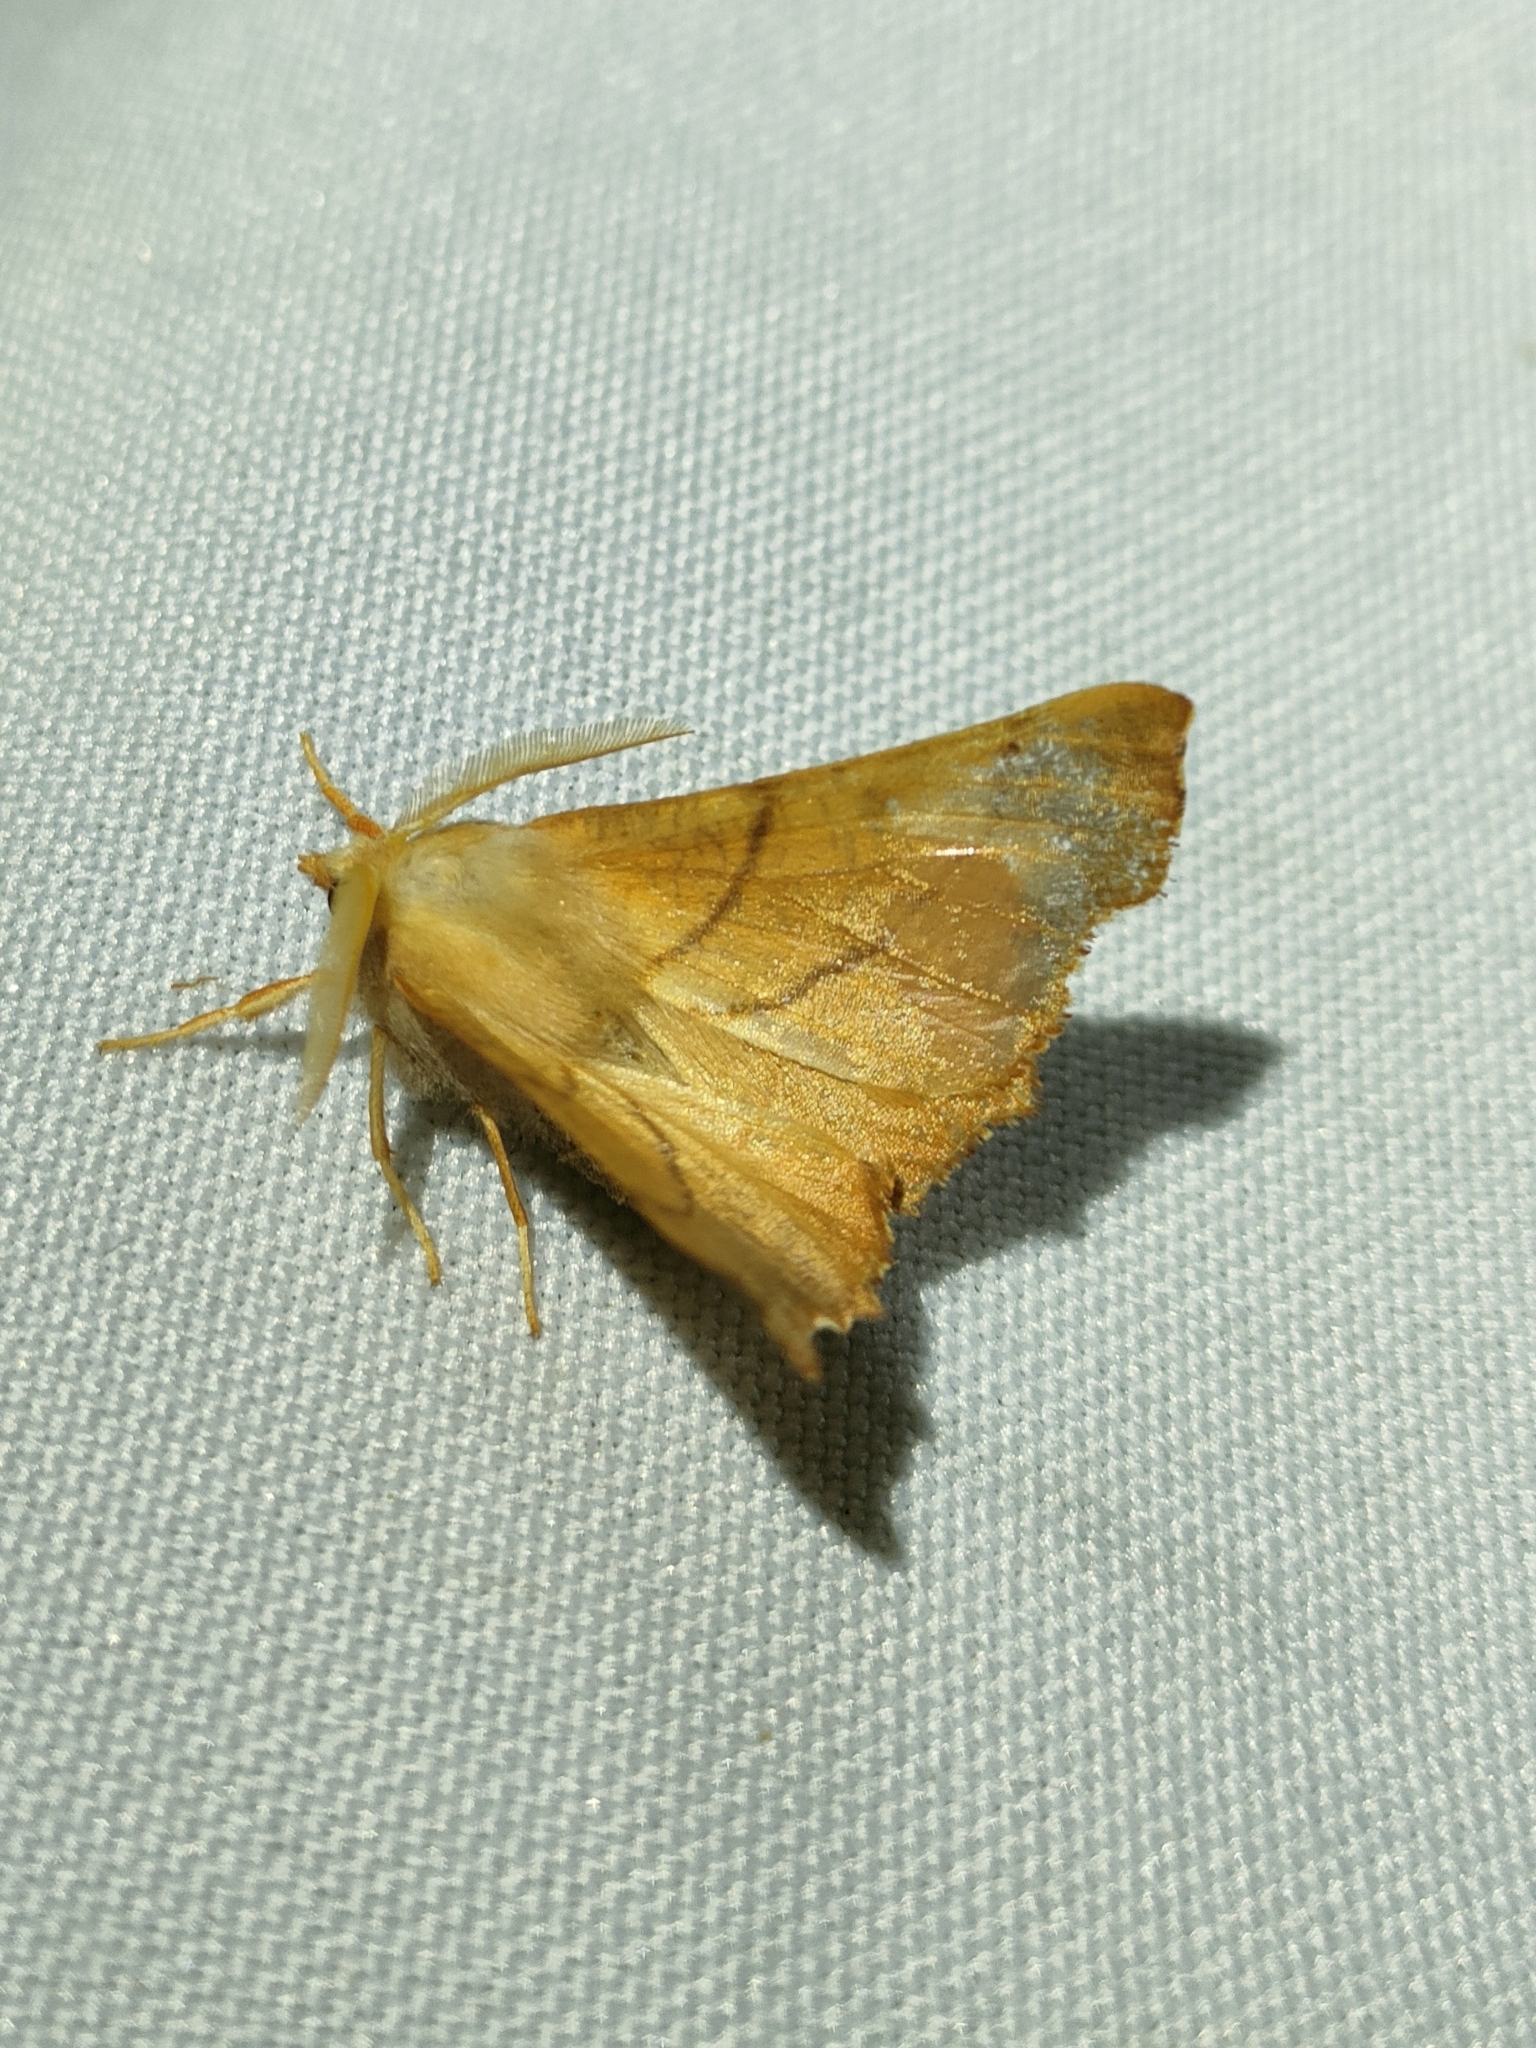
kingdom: Animalia
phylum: Arthropoda
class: Insecta
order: Lepidoptera
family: Geometridae
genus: Ennomos
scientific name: Ennomos fuscantaria
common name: Dusky thorn
